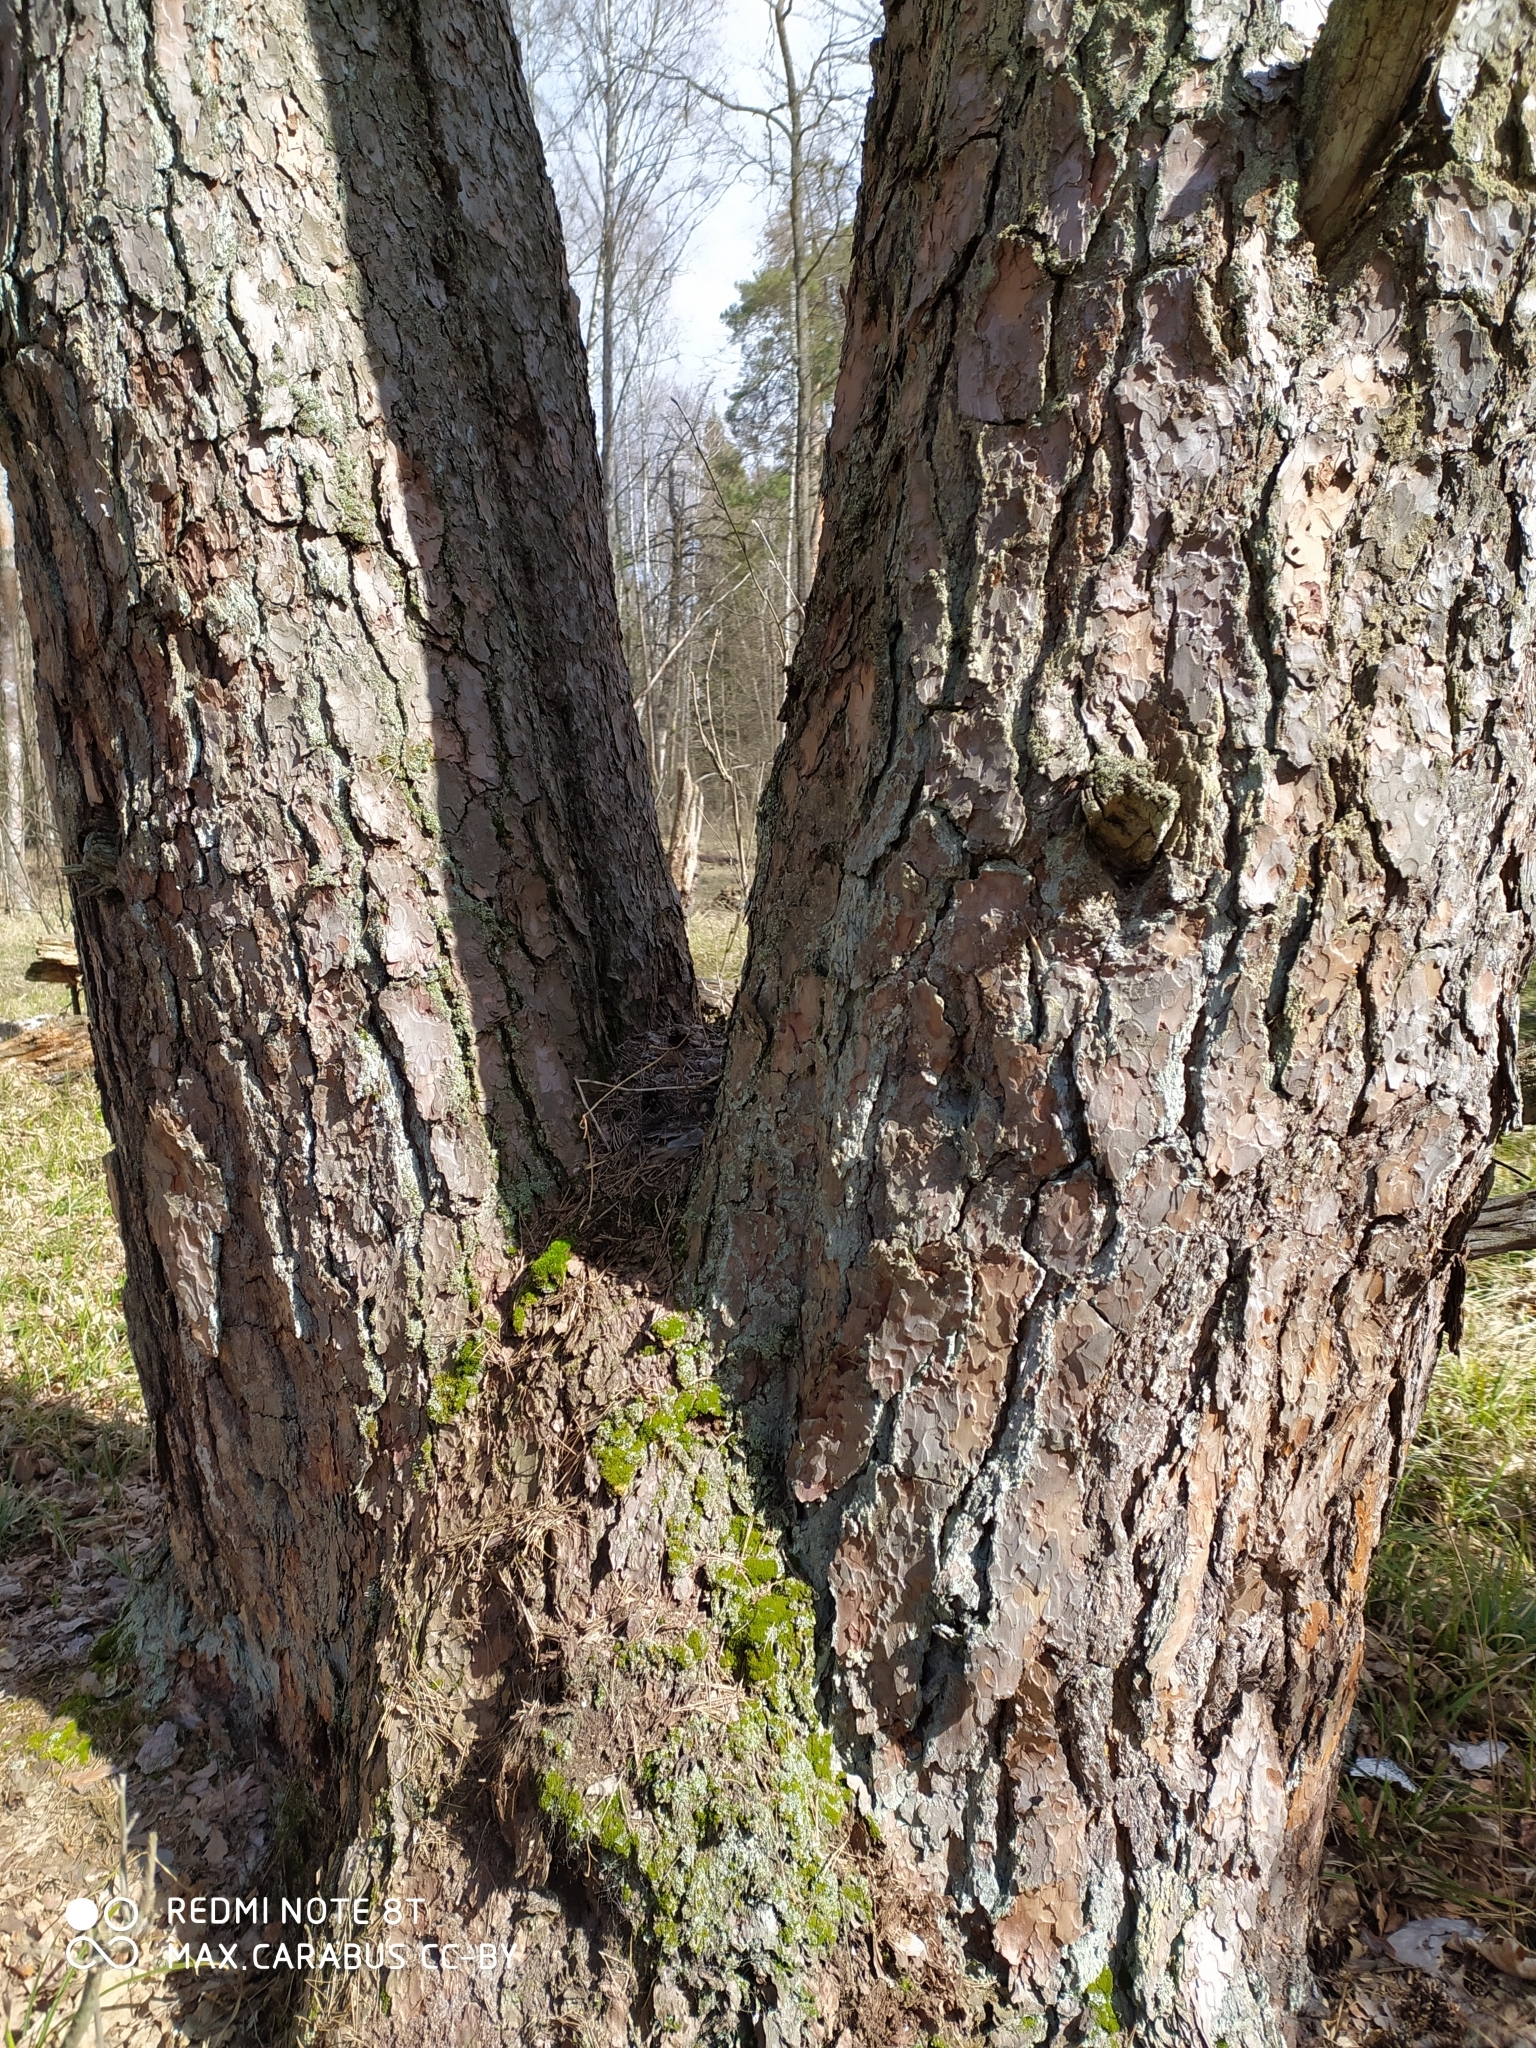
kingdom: Plantae
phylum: Tracheophyta
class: Pinopsida
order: Pinales
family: Pinaceae
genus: Pinus
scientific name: Pinus sylvestris
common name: Scots pine
